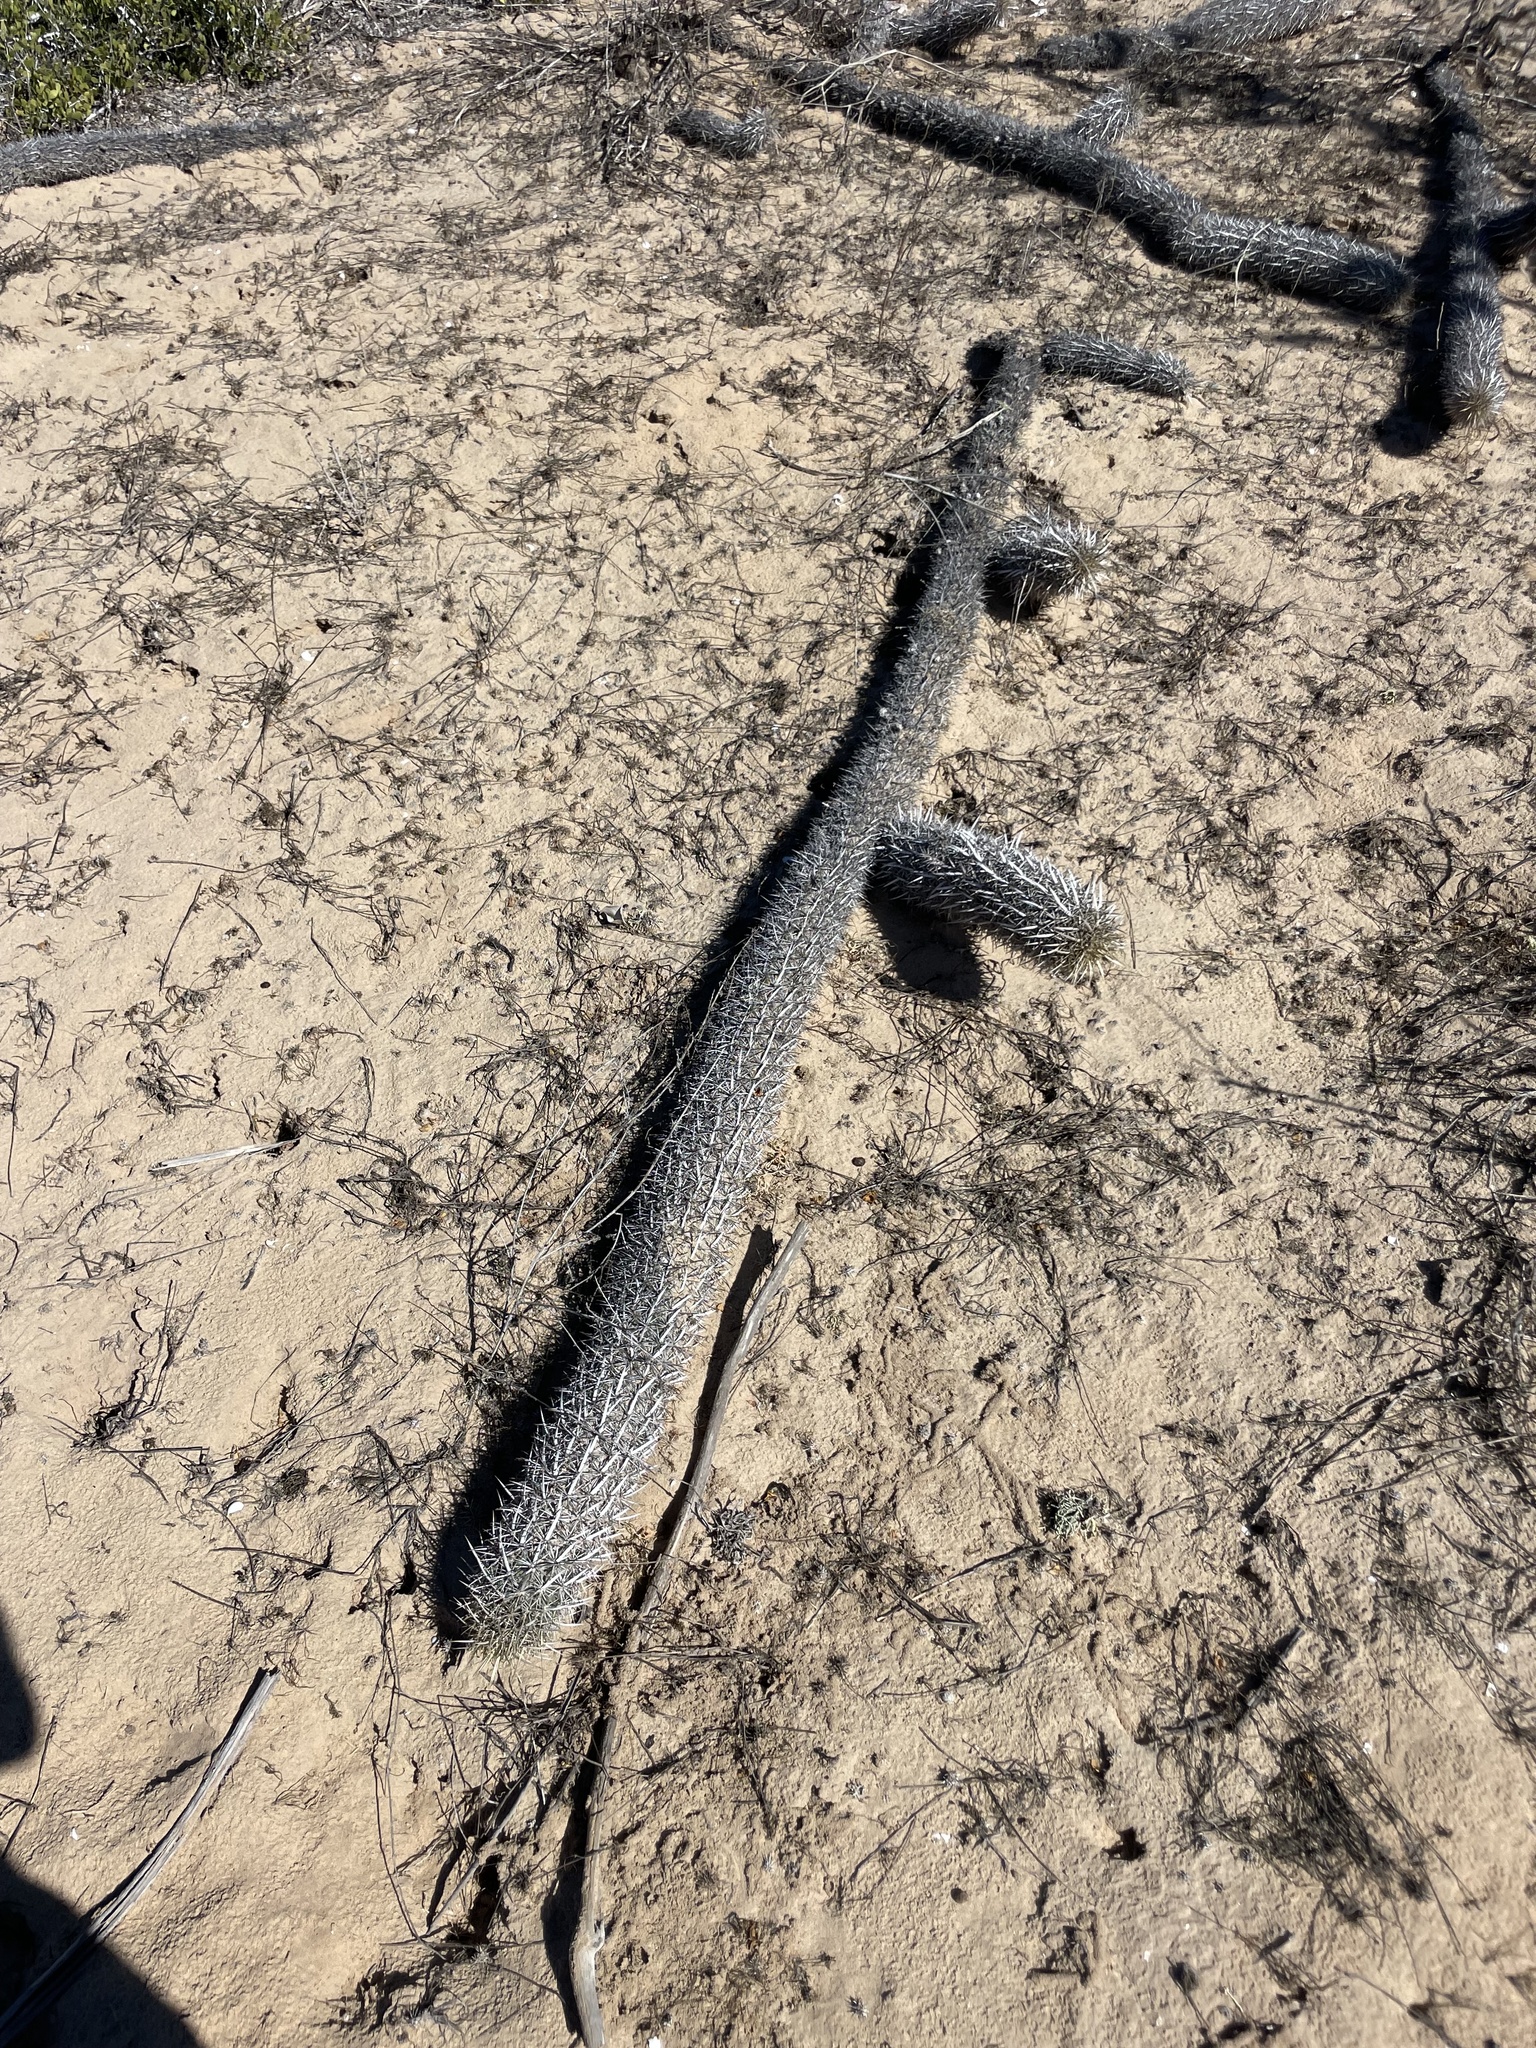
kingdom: Plantae
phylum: Tracheophyta
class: Magnoliopsida
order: Caryophyllales
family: Cactaceae
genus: Stenocereus
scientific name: Stenocereus eruca
